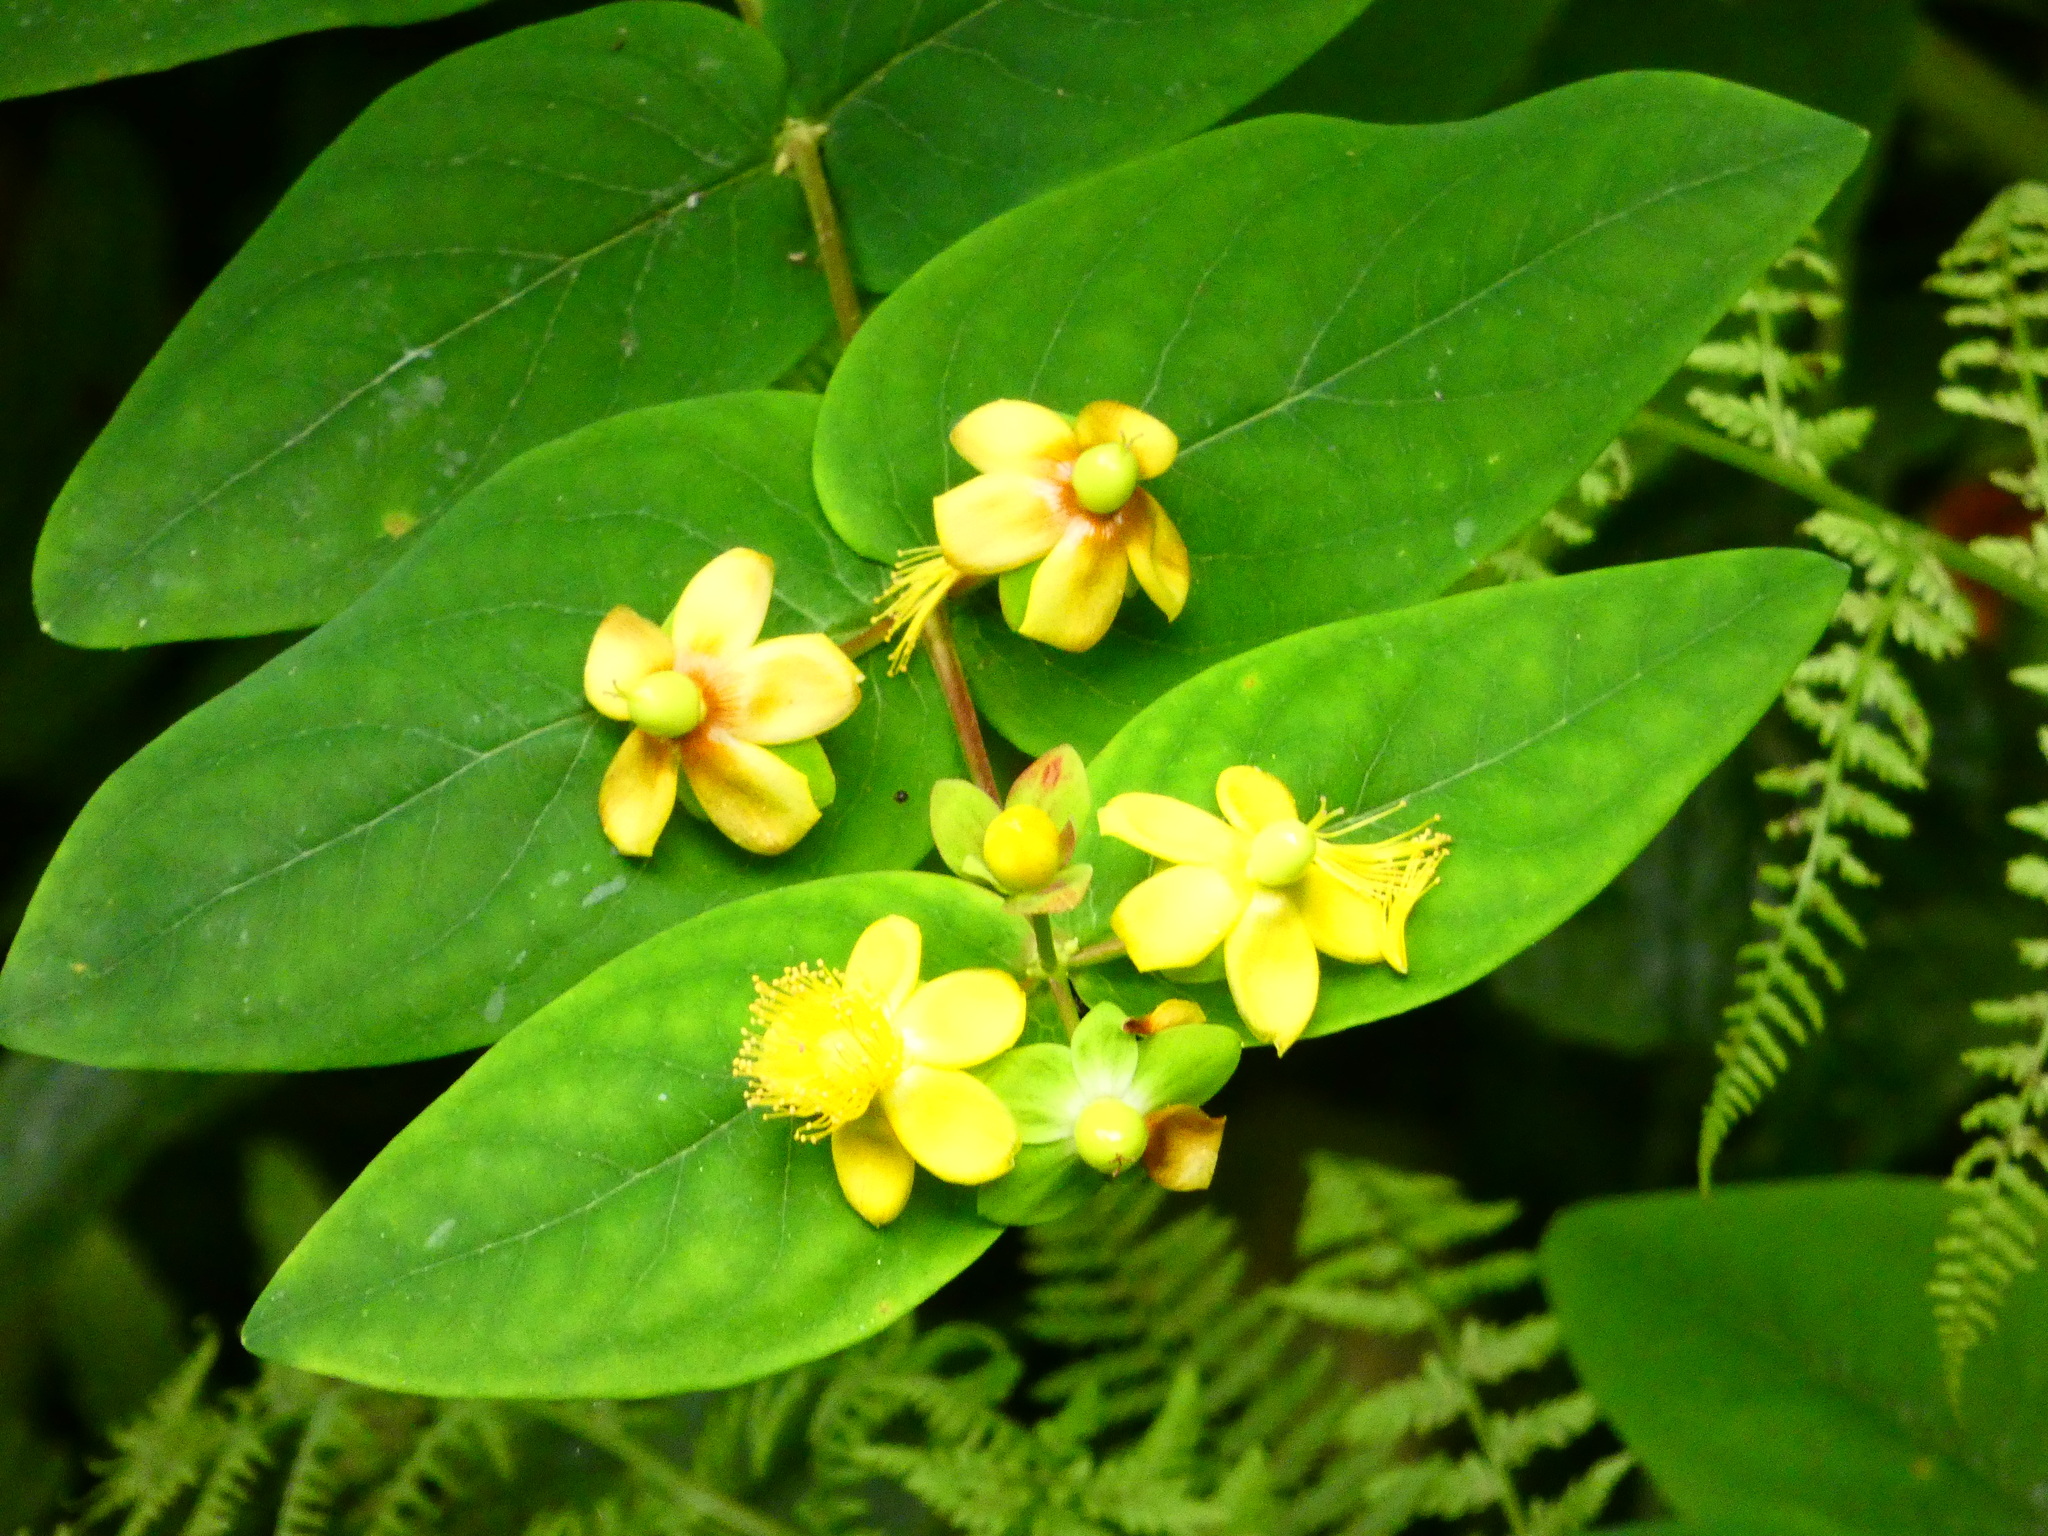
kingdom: Plantae
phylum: Tracheophyta
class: Magnoliopsida
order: Malpighiales
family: Hypericaceae
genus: Hypericum
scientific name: Hypericum androsaemum
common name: Sweet-amber
